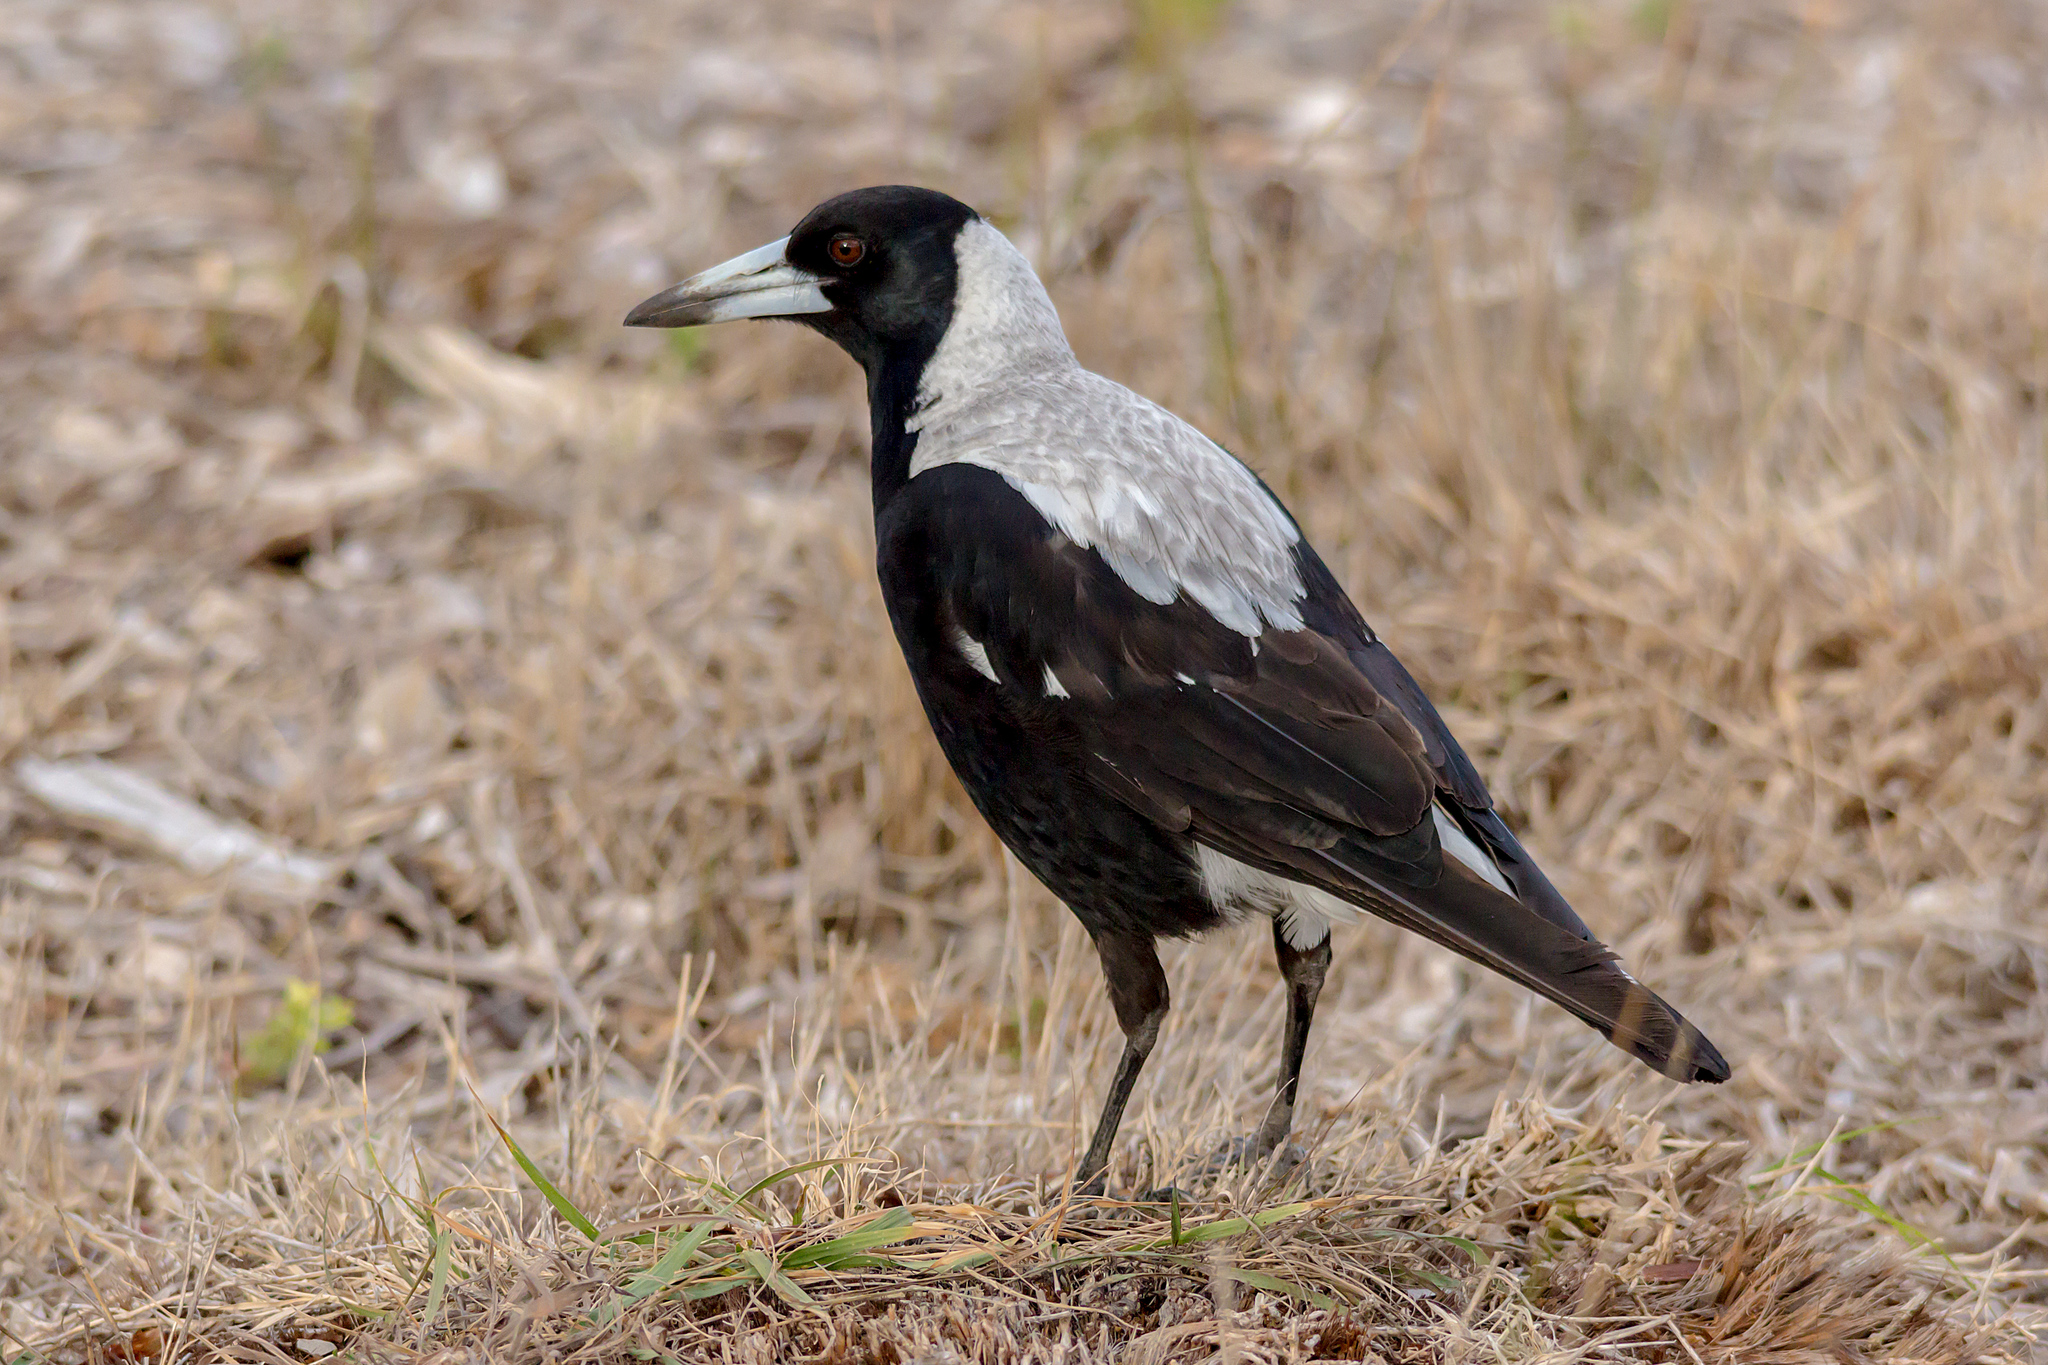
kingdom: Animalia
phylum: Chordata
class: Aves
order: Passeriformes
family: Cracticidae
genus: Gymnorhina
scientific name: Gymnorhina tibicen
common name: Australian magpie
